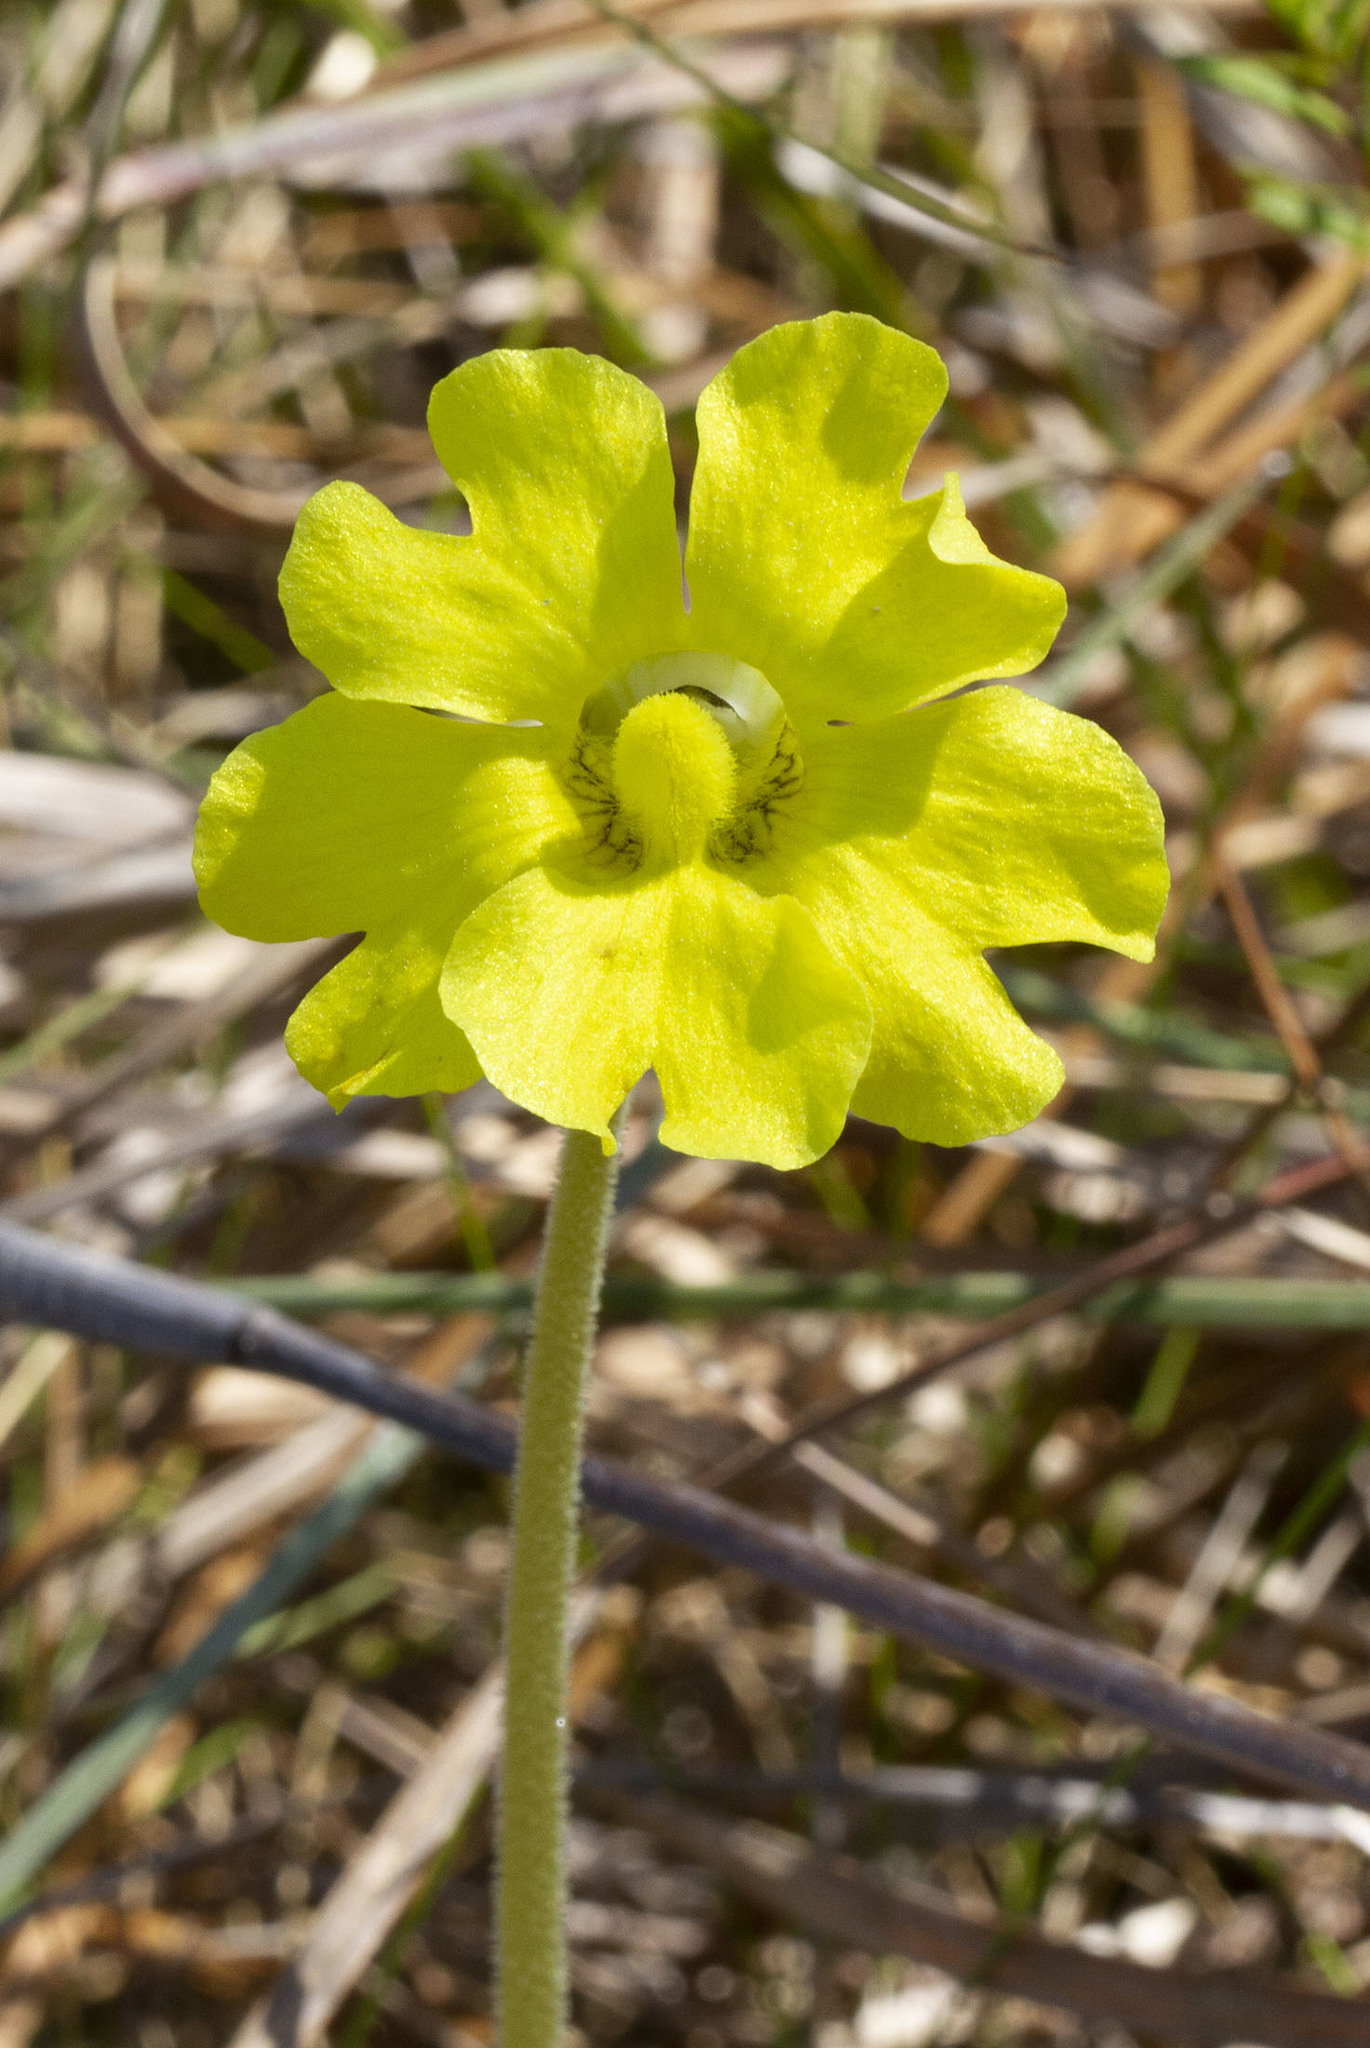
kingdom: Plantae
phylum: Tracheophyta
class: Magnoliopsida
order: Lamiales
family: Lentibulariaceae
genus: Pinguicula
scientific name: Pinguicula lutea
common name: Yellow butterwort
